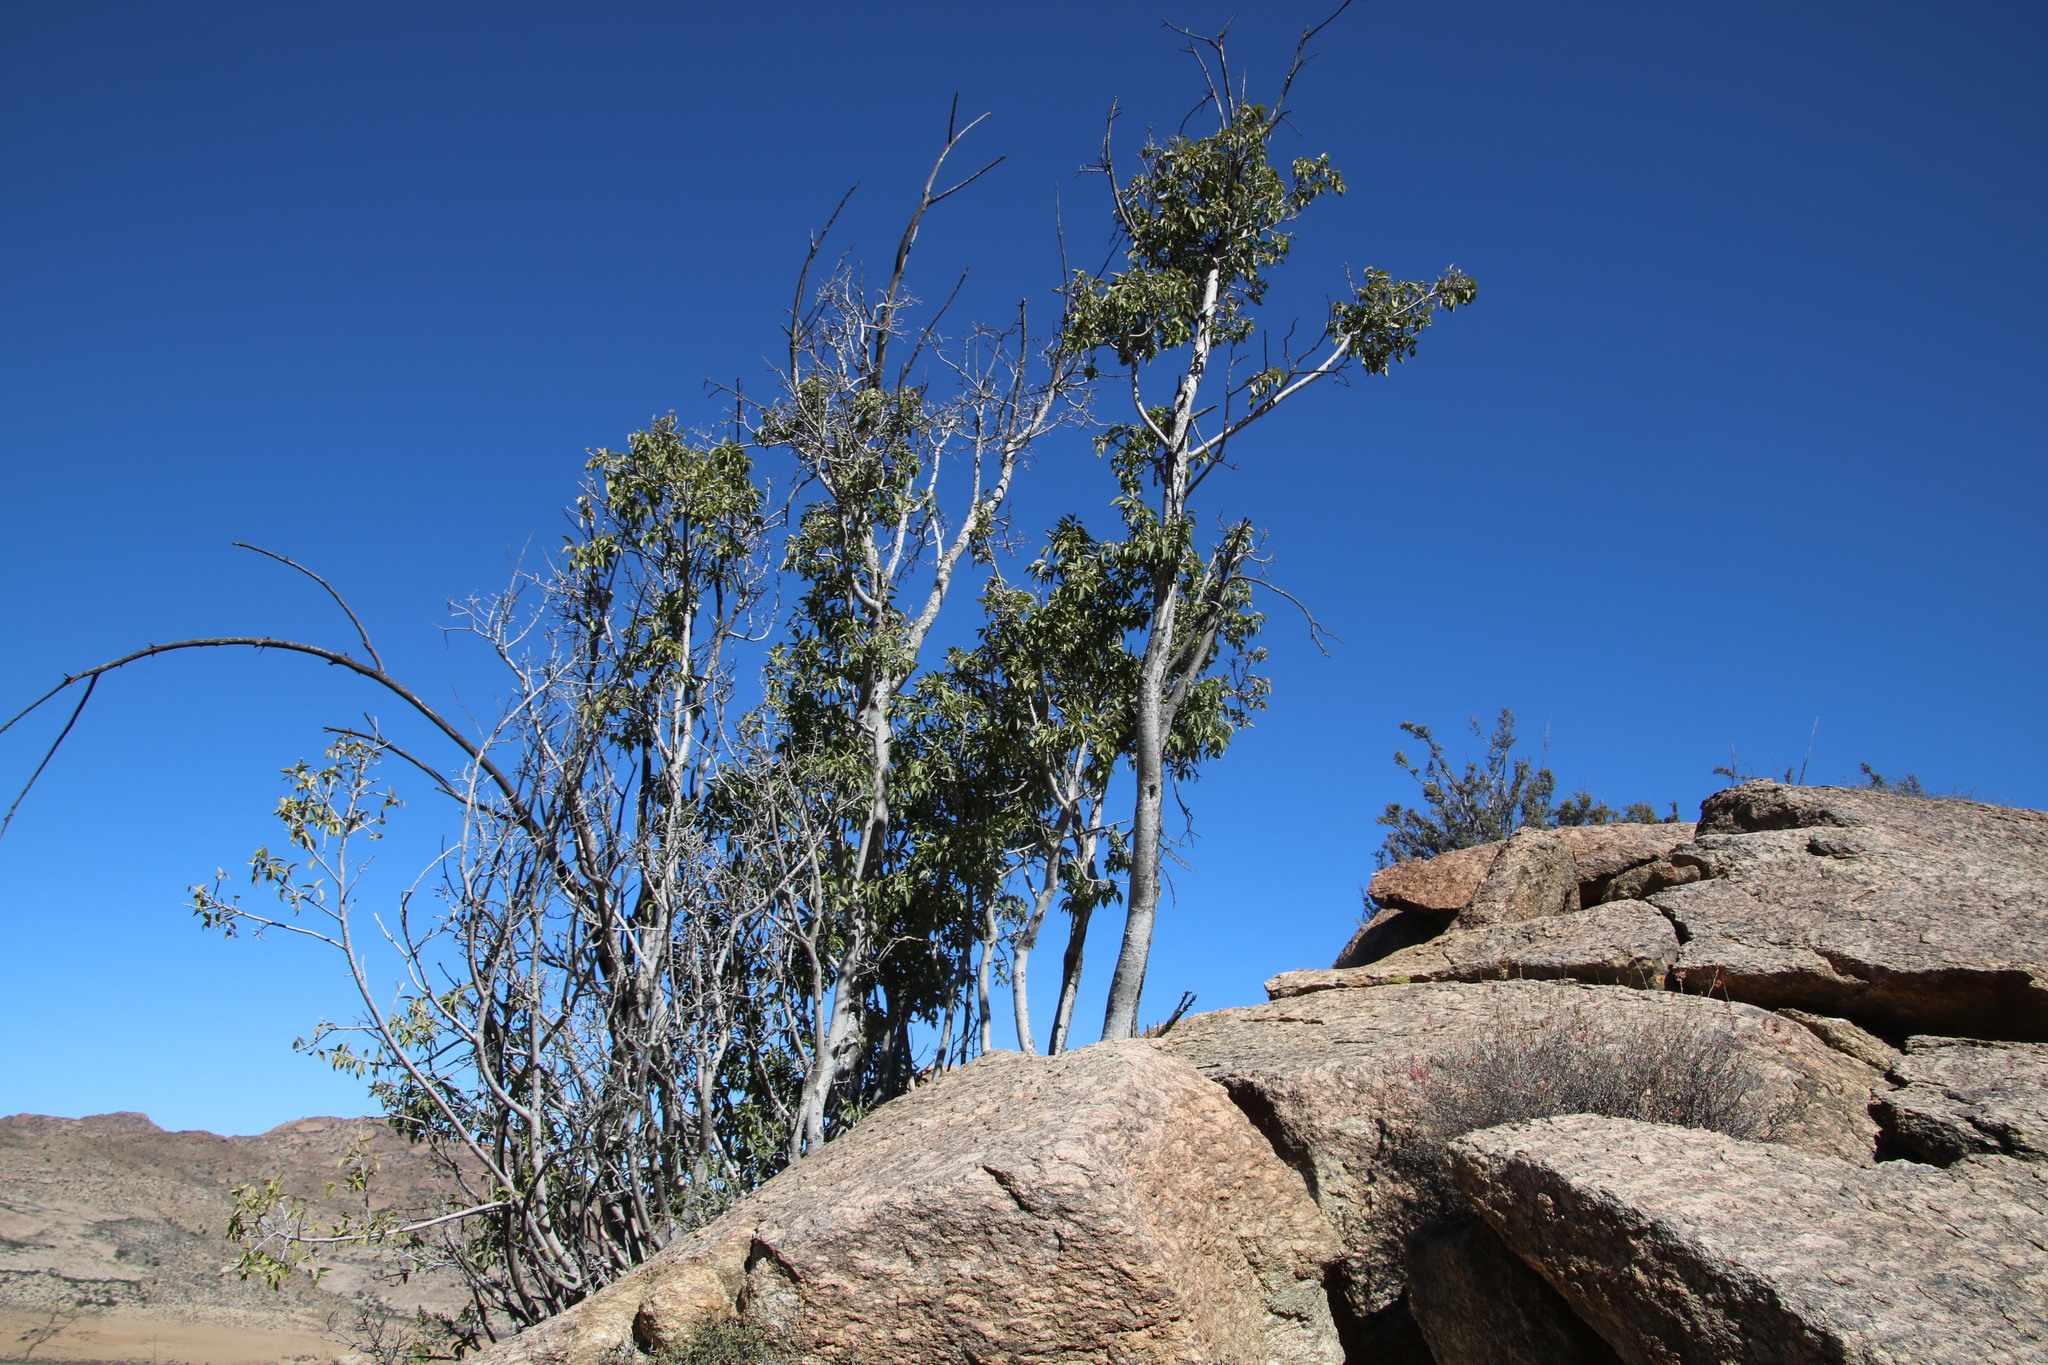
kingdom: Plantae
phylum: Tracheophyta
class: Magnoliopsida
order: Rosales
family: Moraceae
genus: Ficus
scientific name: Ficus cordata
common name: Namaqua rock fig
